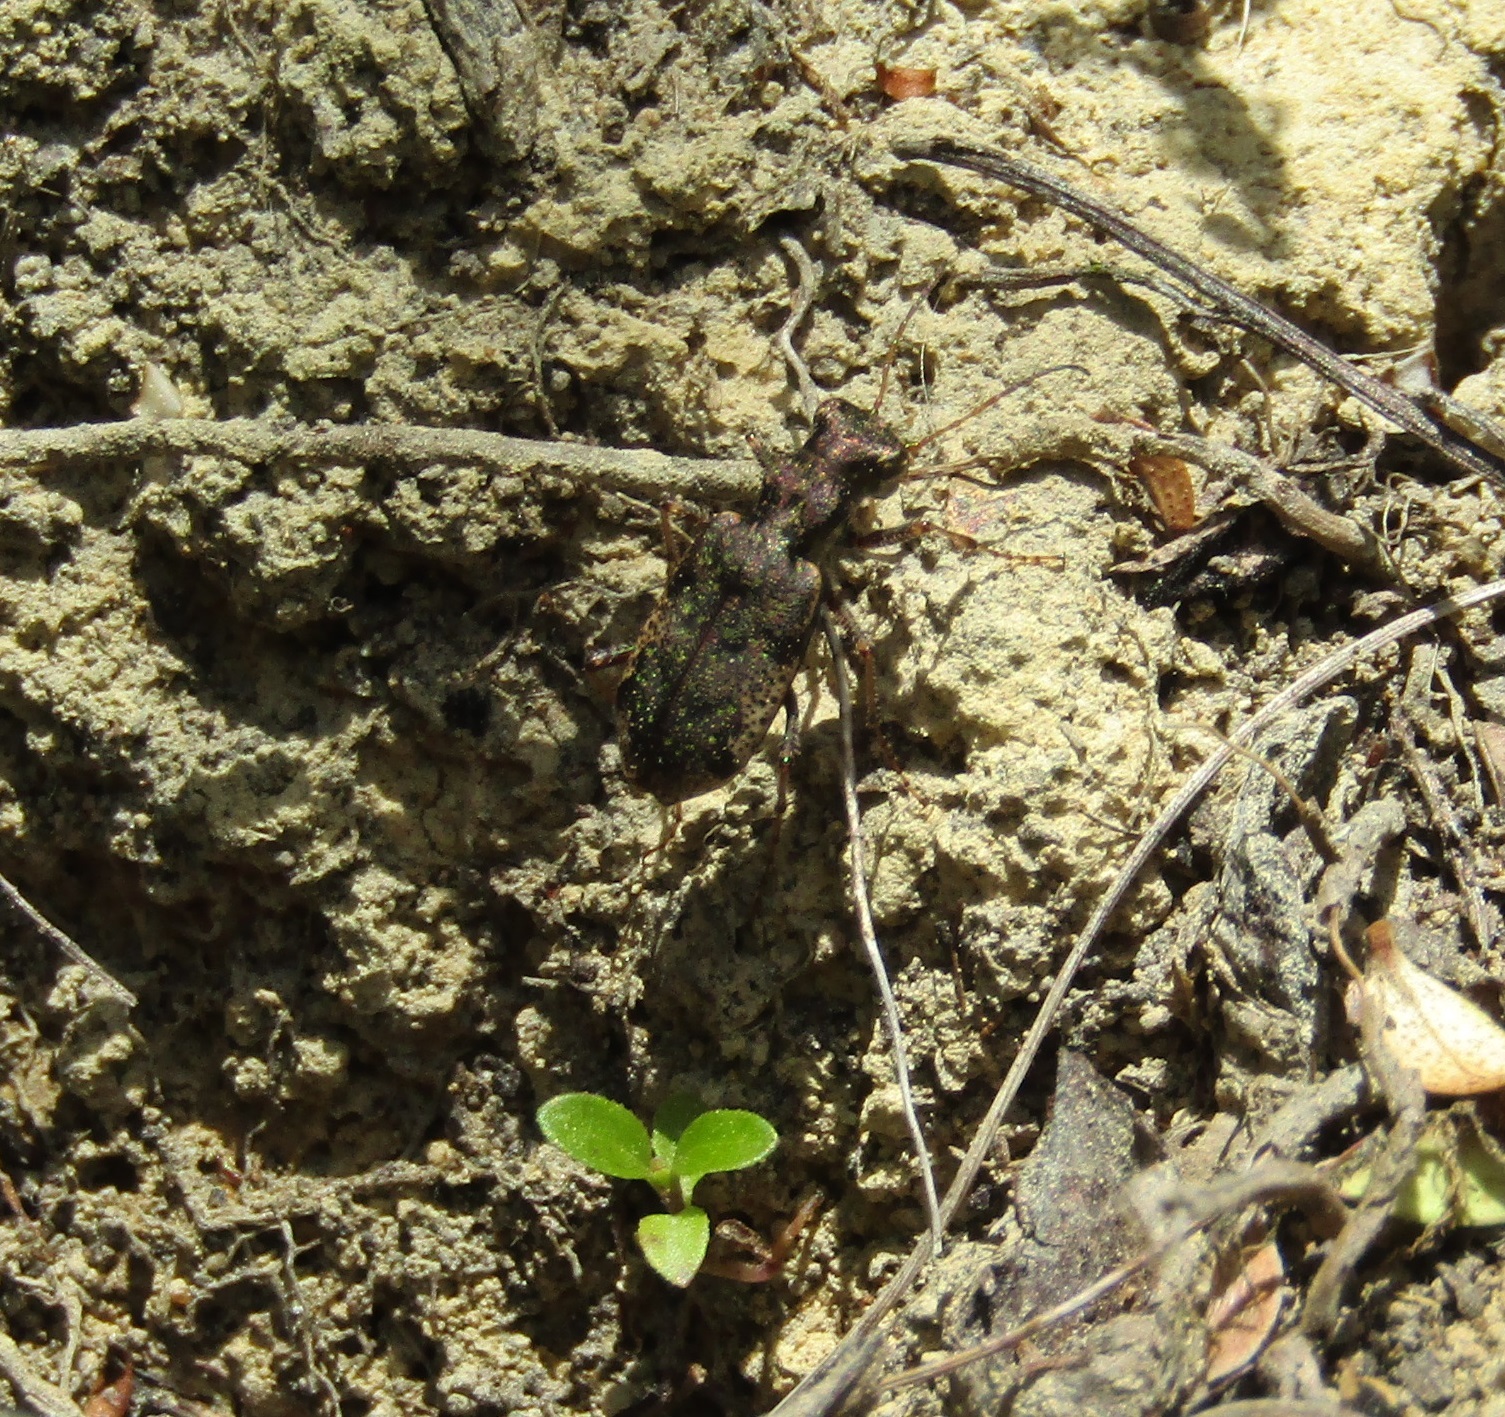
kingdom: Animalia
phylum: Arthropoda
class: Insecta
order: Coleoptera
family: Carabidae
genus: Neocicindela
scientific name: Neocicindela parryi
